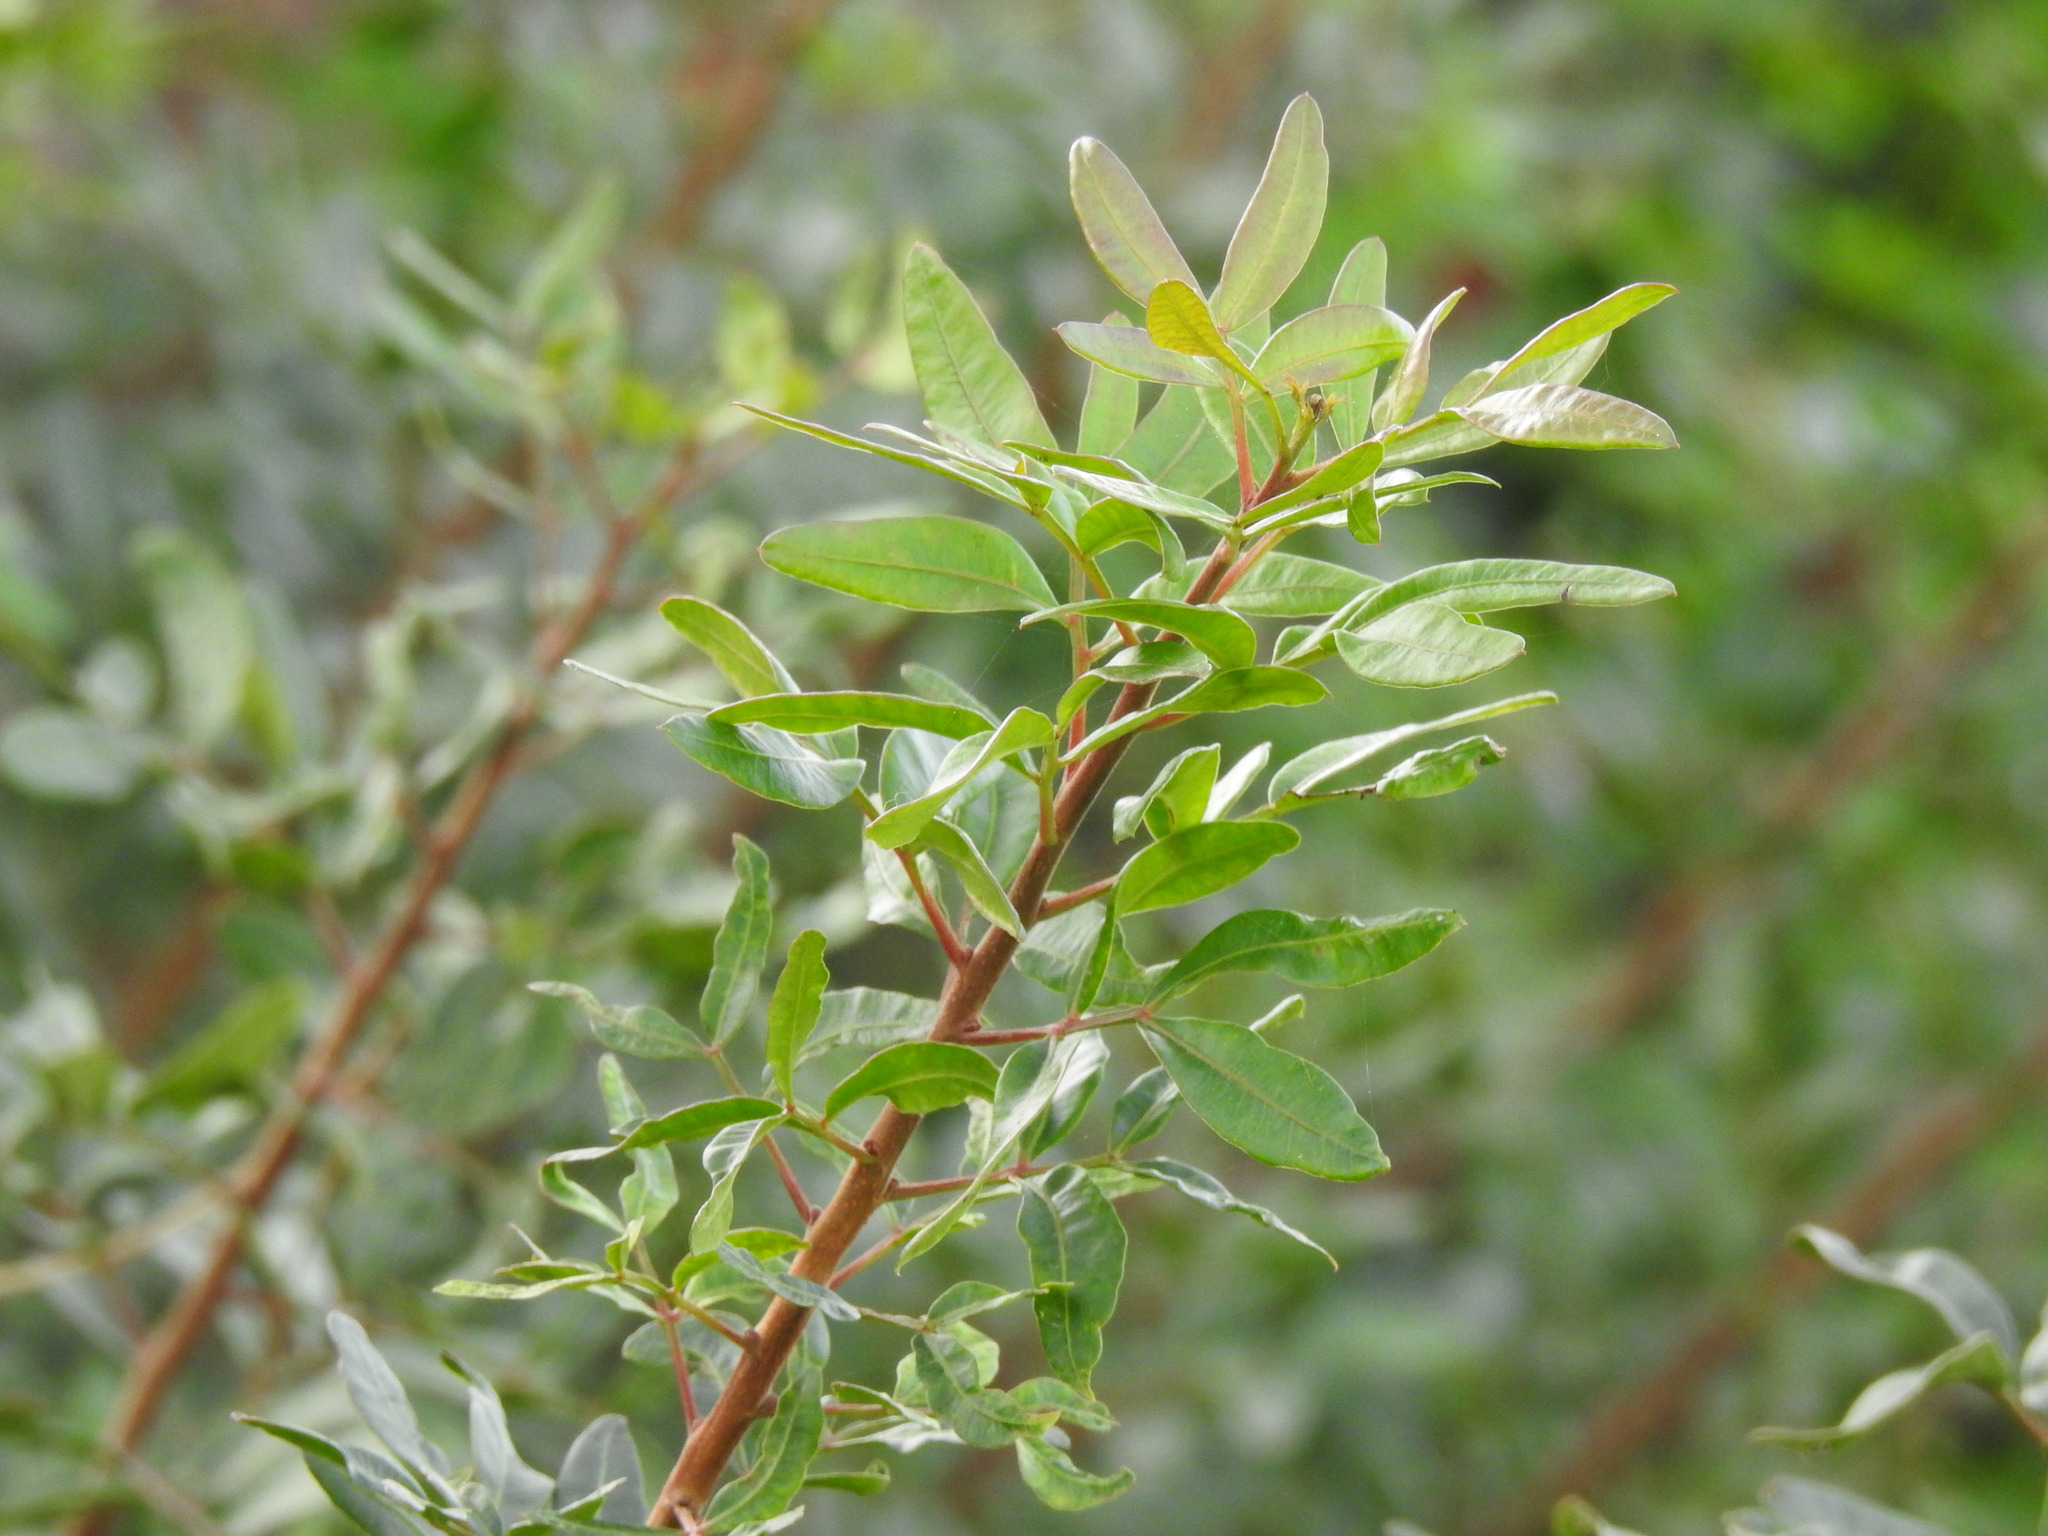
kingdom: Plantae
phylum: Tracheophyta
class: Magnoliopsida
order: Sapindales
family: Anacardiaceae
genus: Pistacia
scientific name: Pistacia lentiscus
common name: Lentisk
